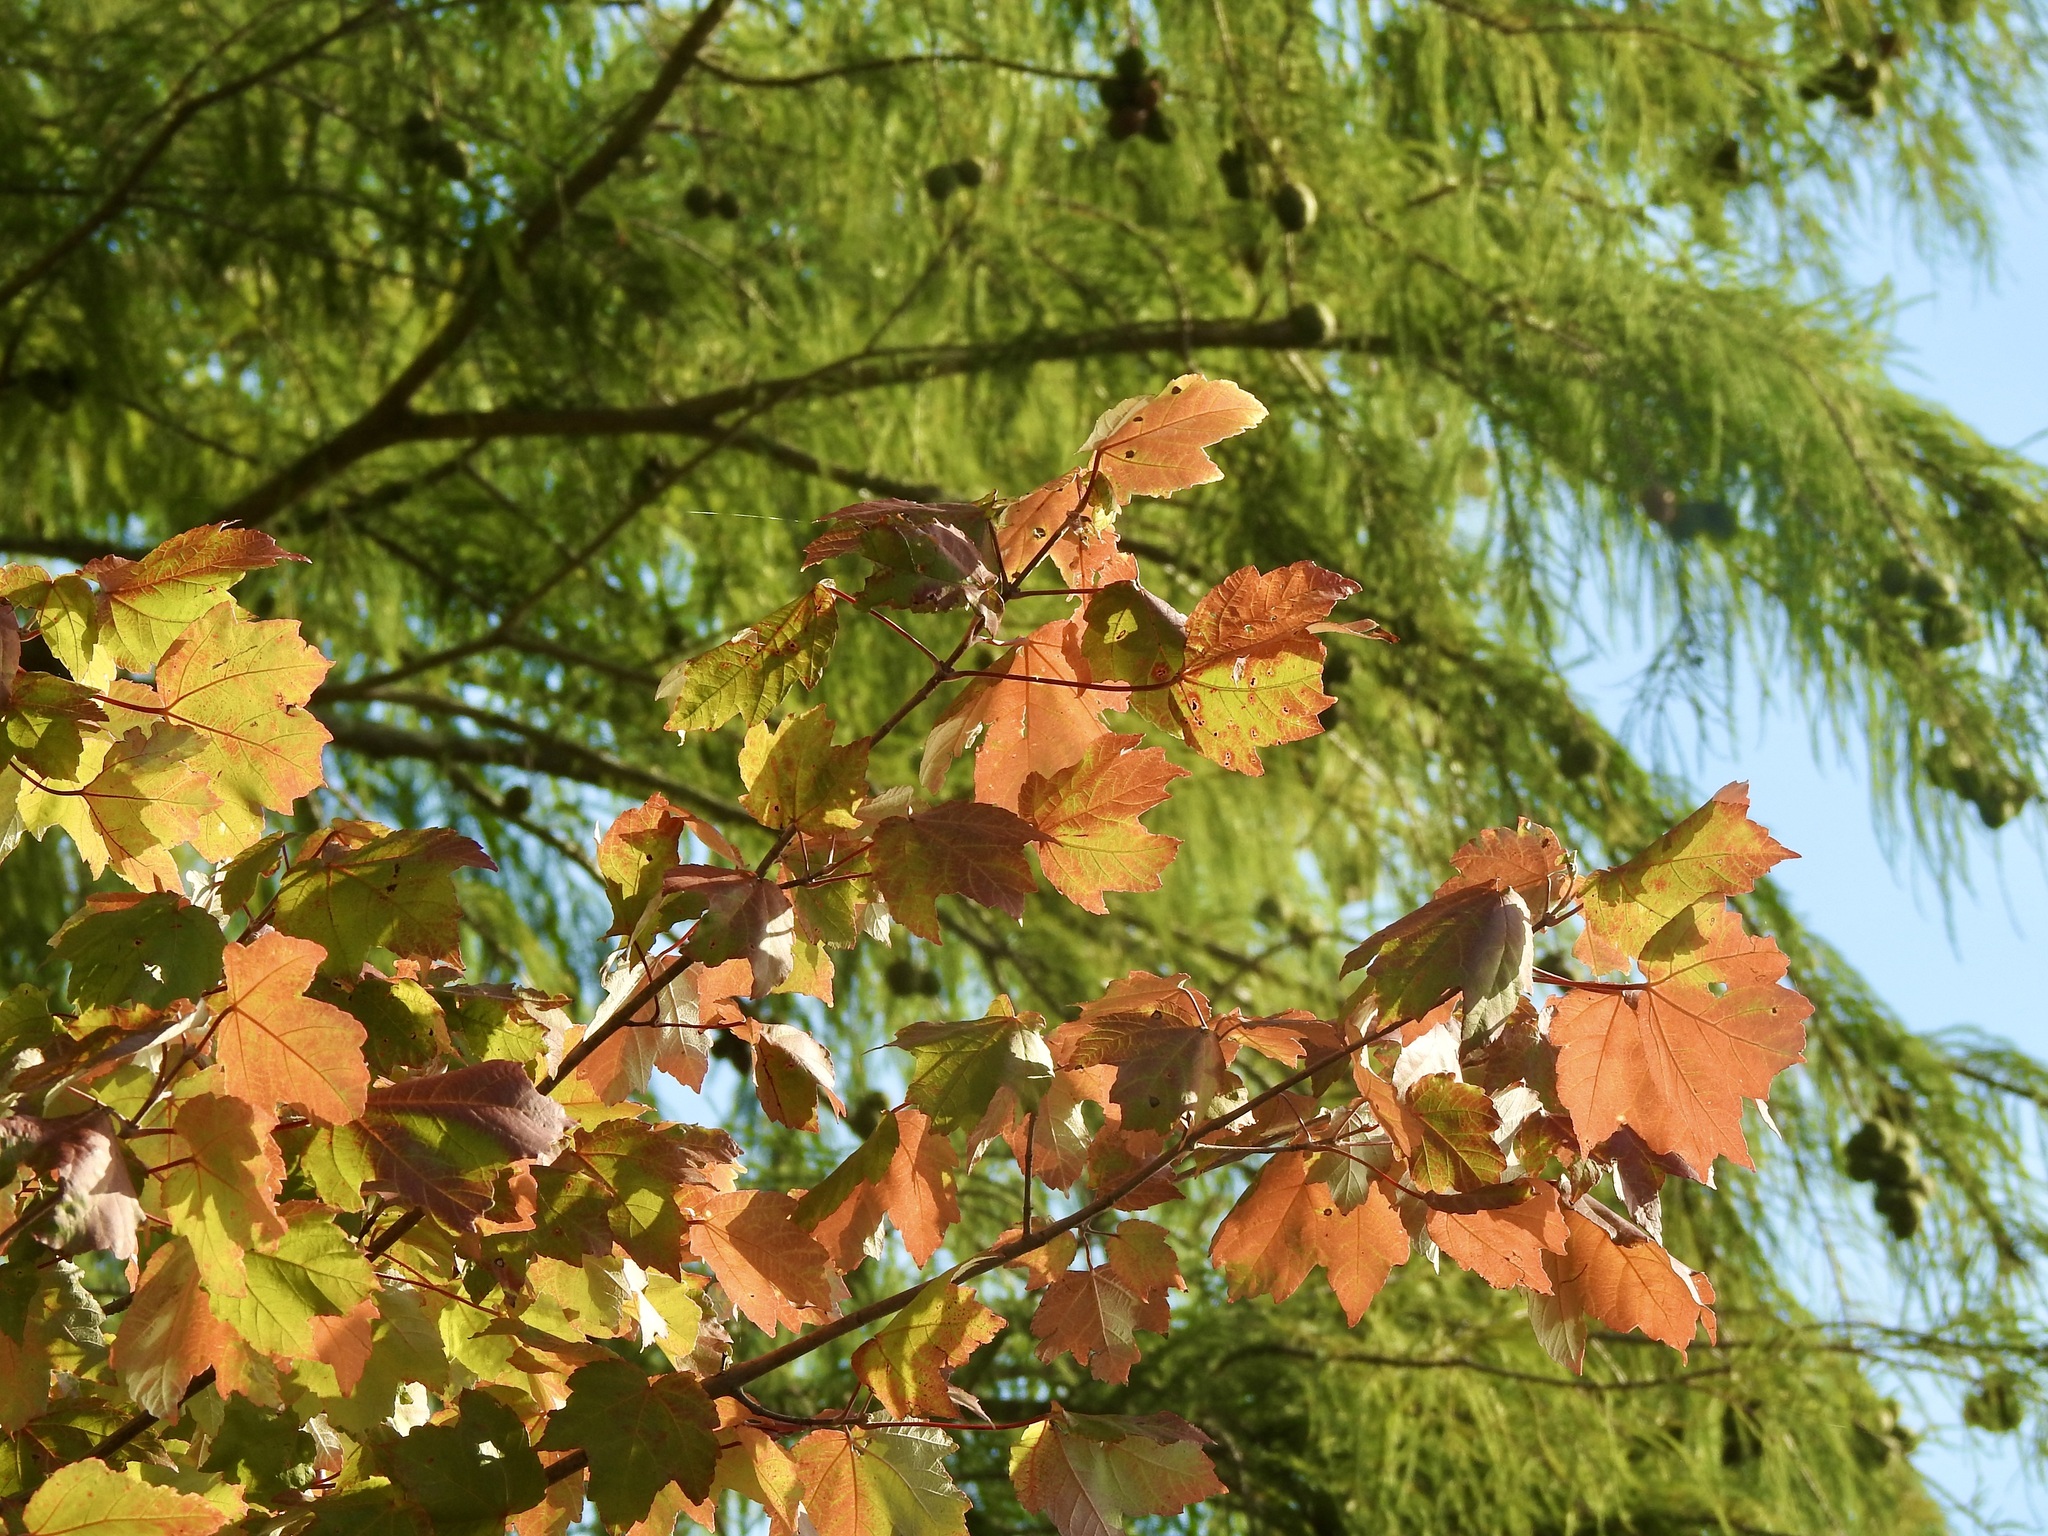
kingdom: Plantae
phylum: Tracheophyta
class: Magnoliopsida
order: Sapindales
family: Sapindaceae
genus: Acer
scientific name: Acer rubrum
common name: Red maple
